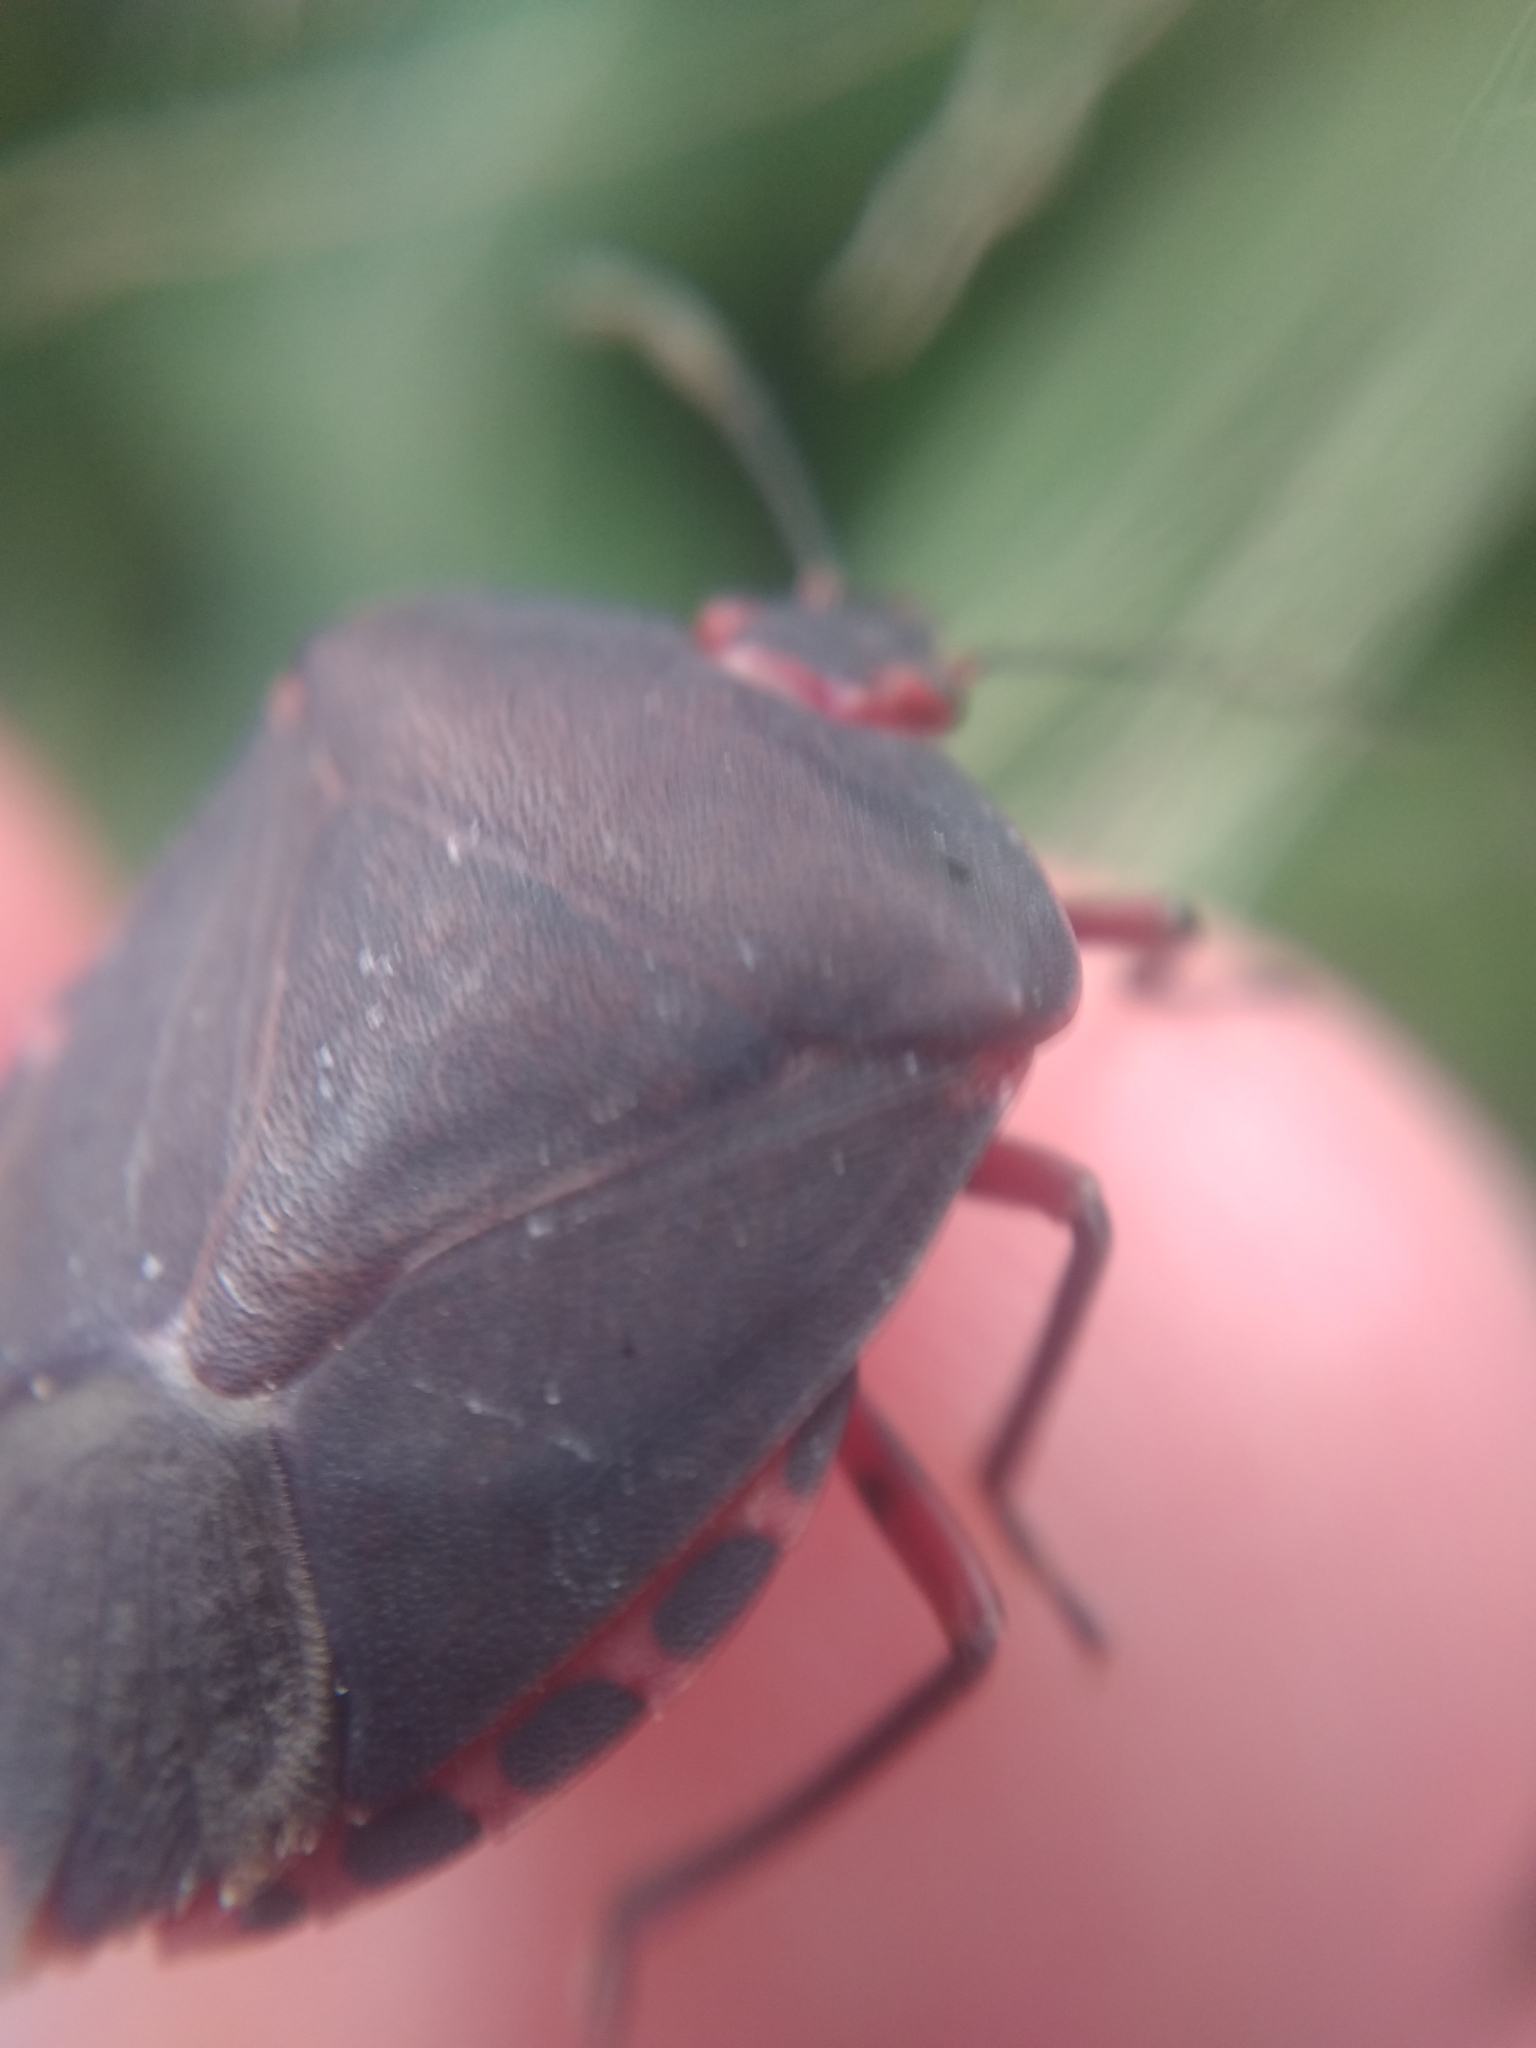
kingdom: Animalia
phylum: Arthropoda
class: Insecta
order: Hemiptera
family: Pentatomidae
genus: Caura
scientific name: Caura rufiventris
